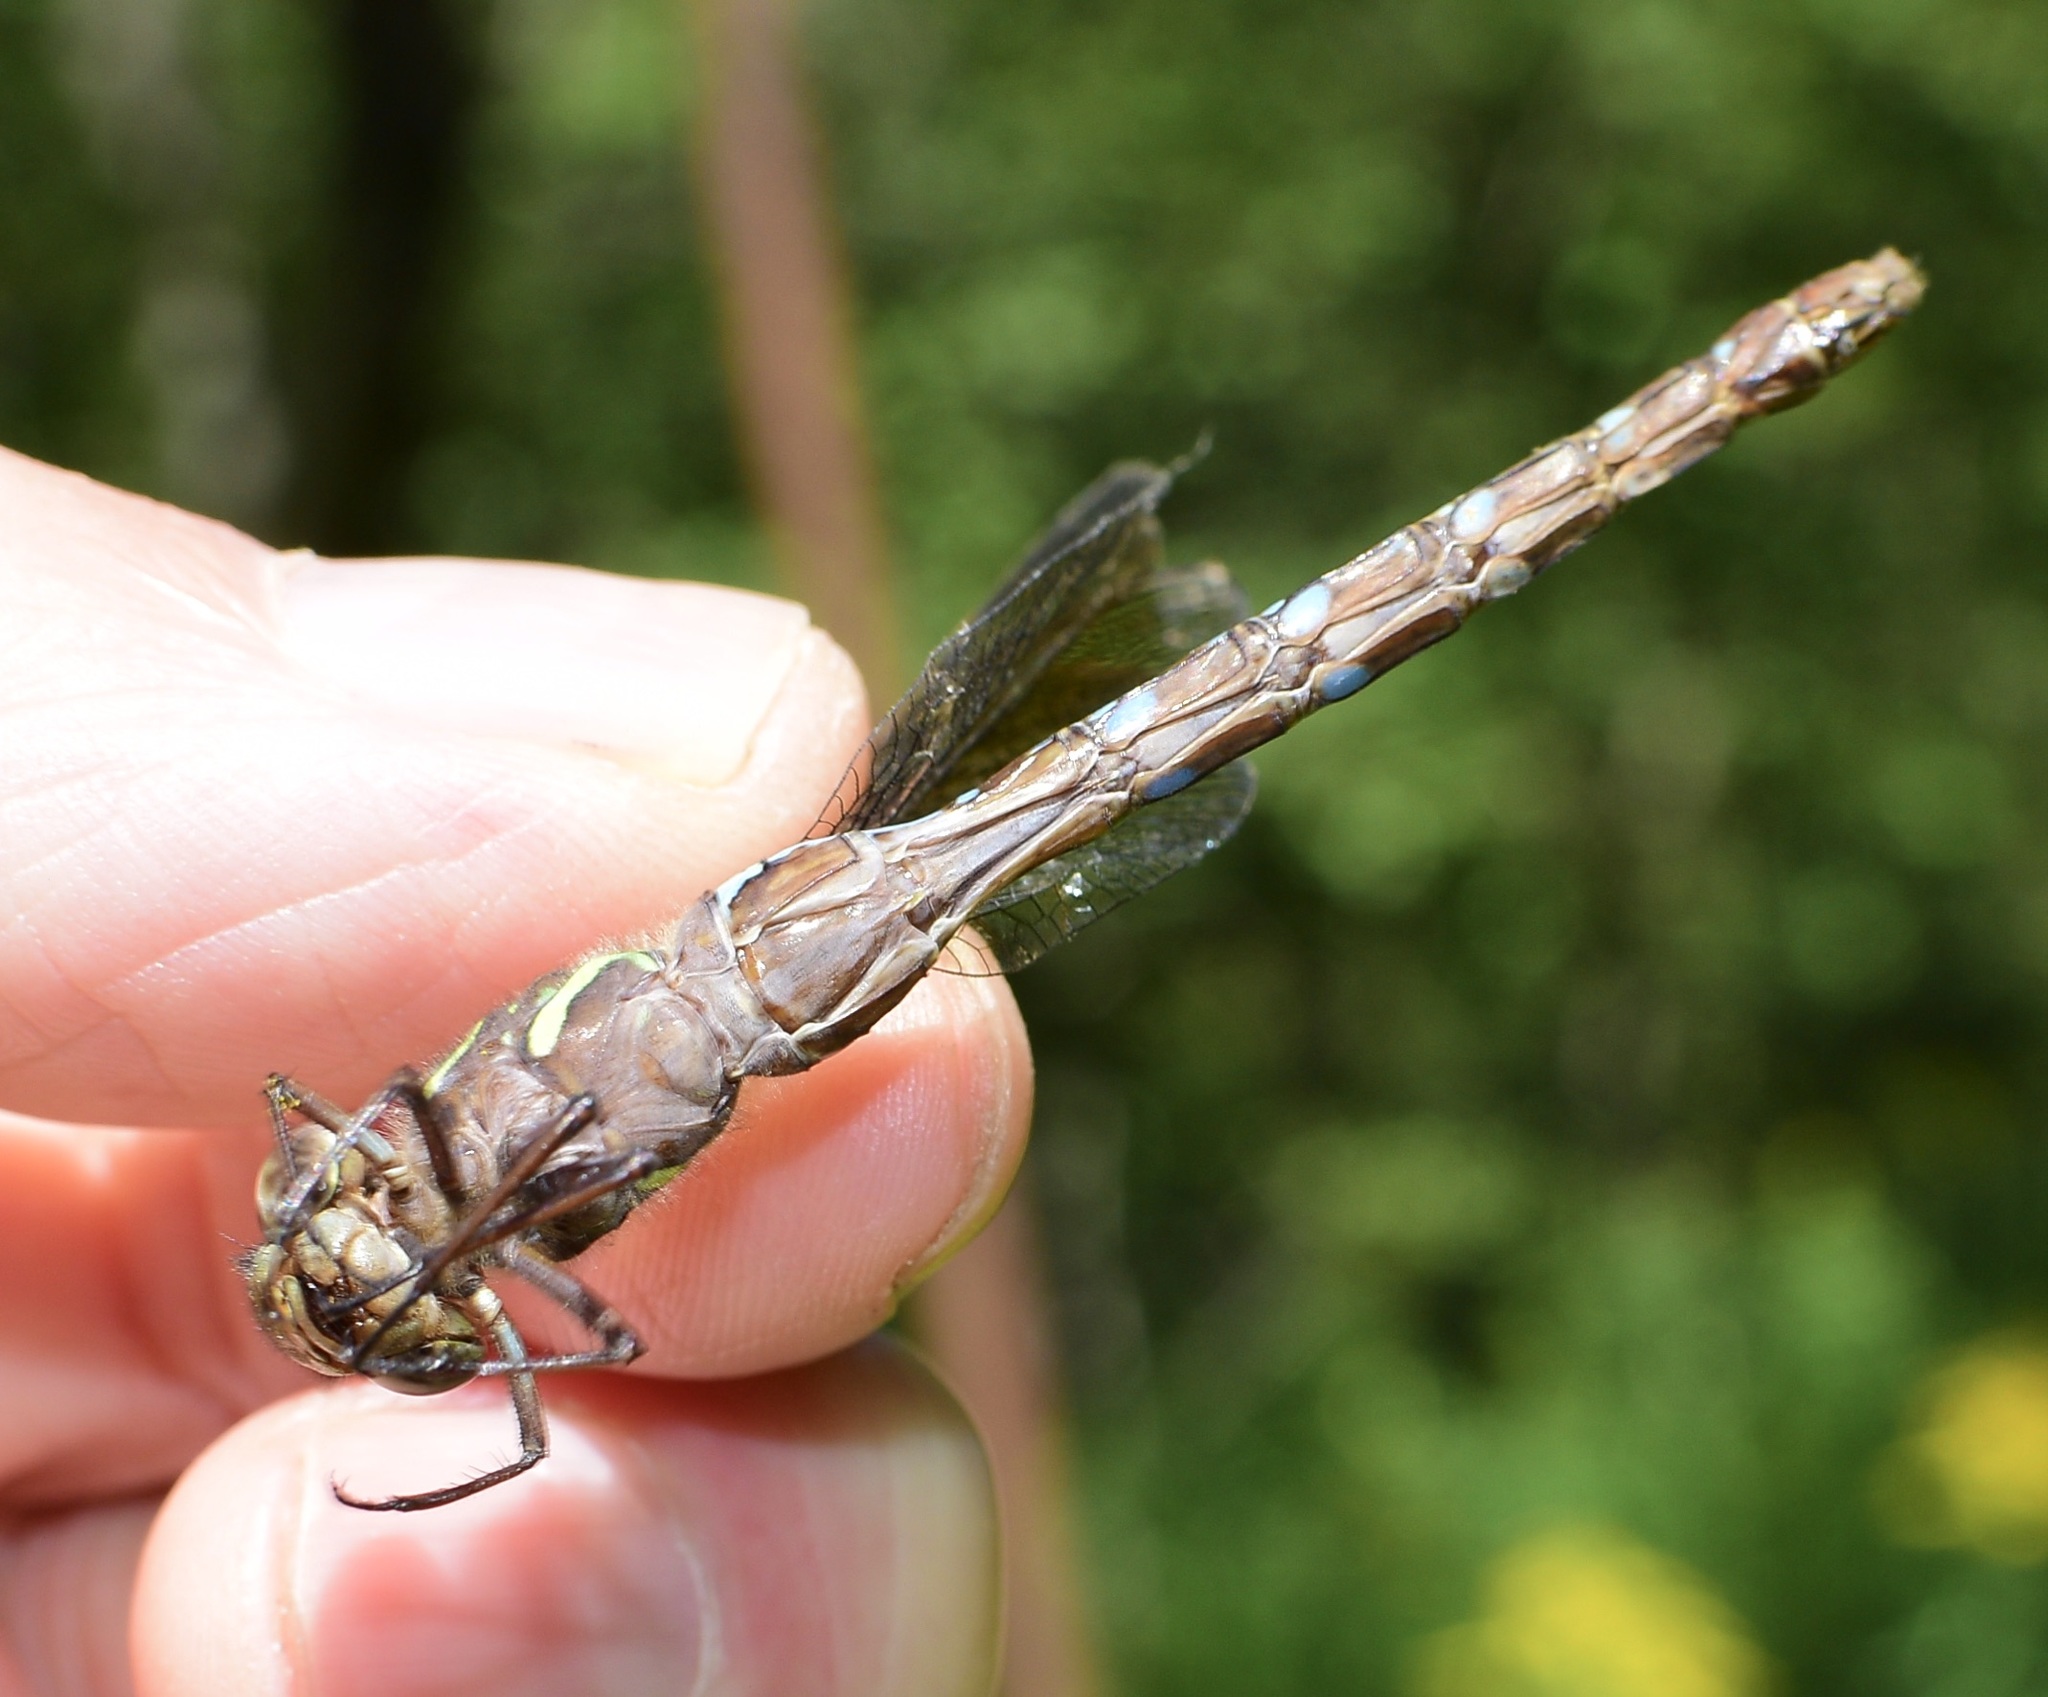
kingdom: Animalia
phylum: Arthropoda
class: Insecta
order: Odonata
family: Aeshnidae
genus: Aeshna
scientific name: Aeshna umbrosa
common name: Shadow darner
